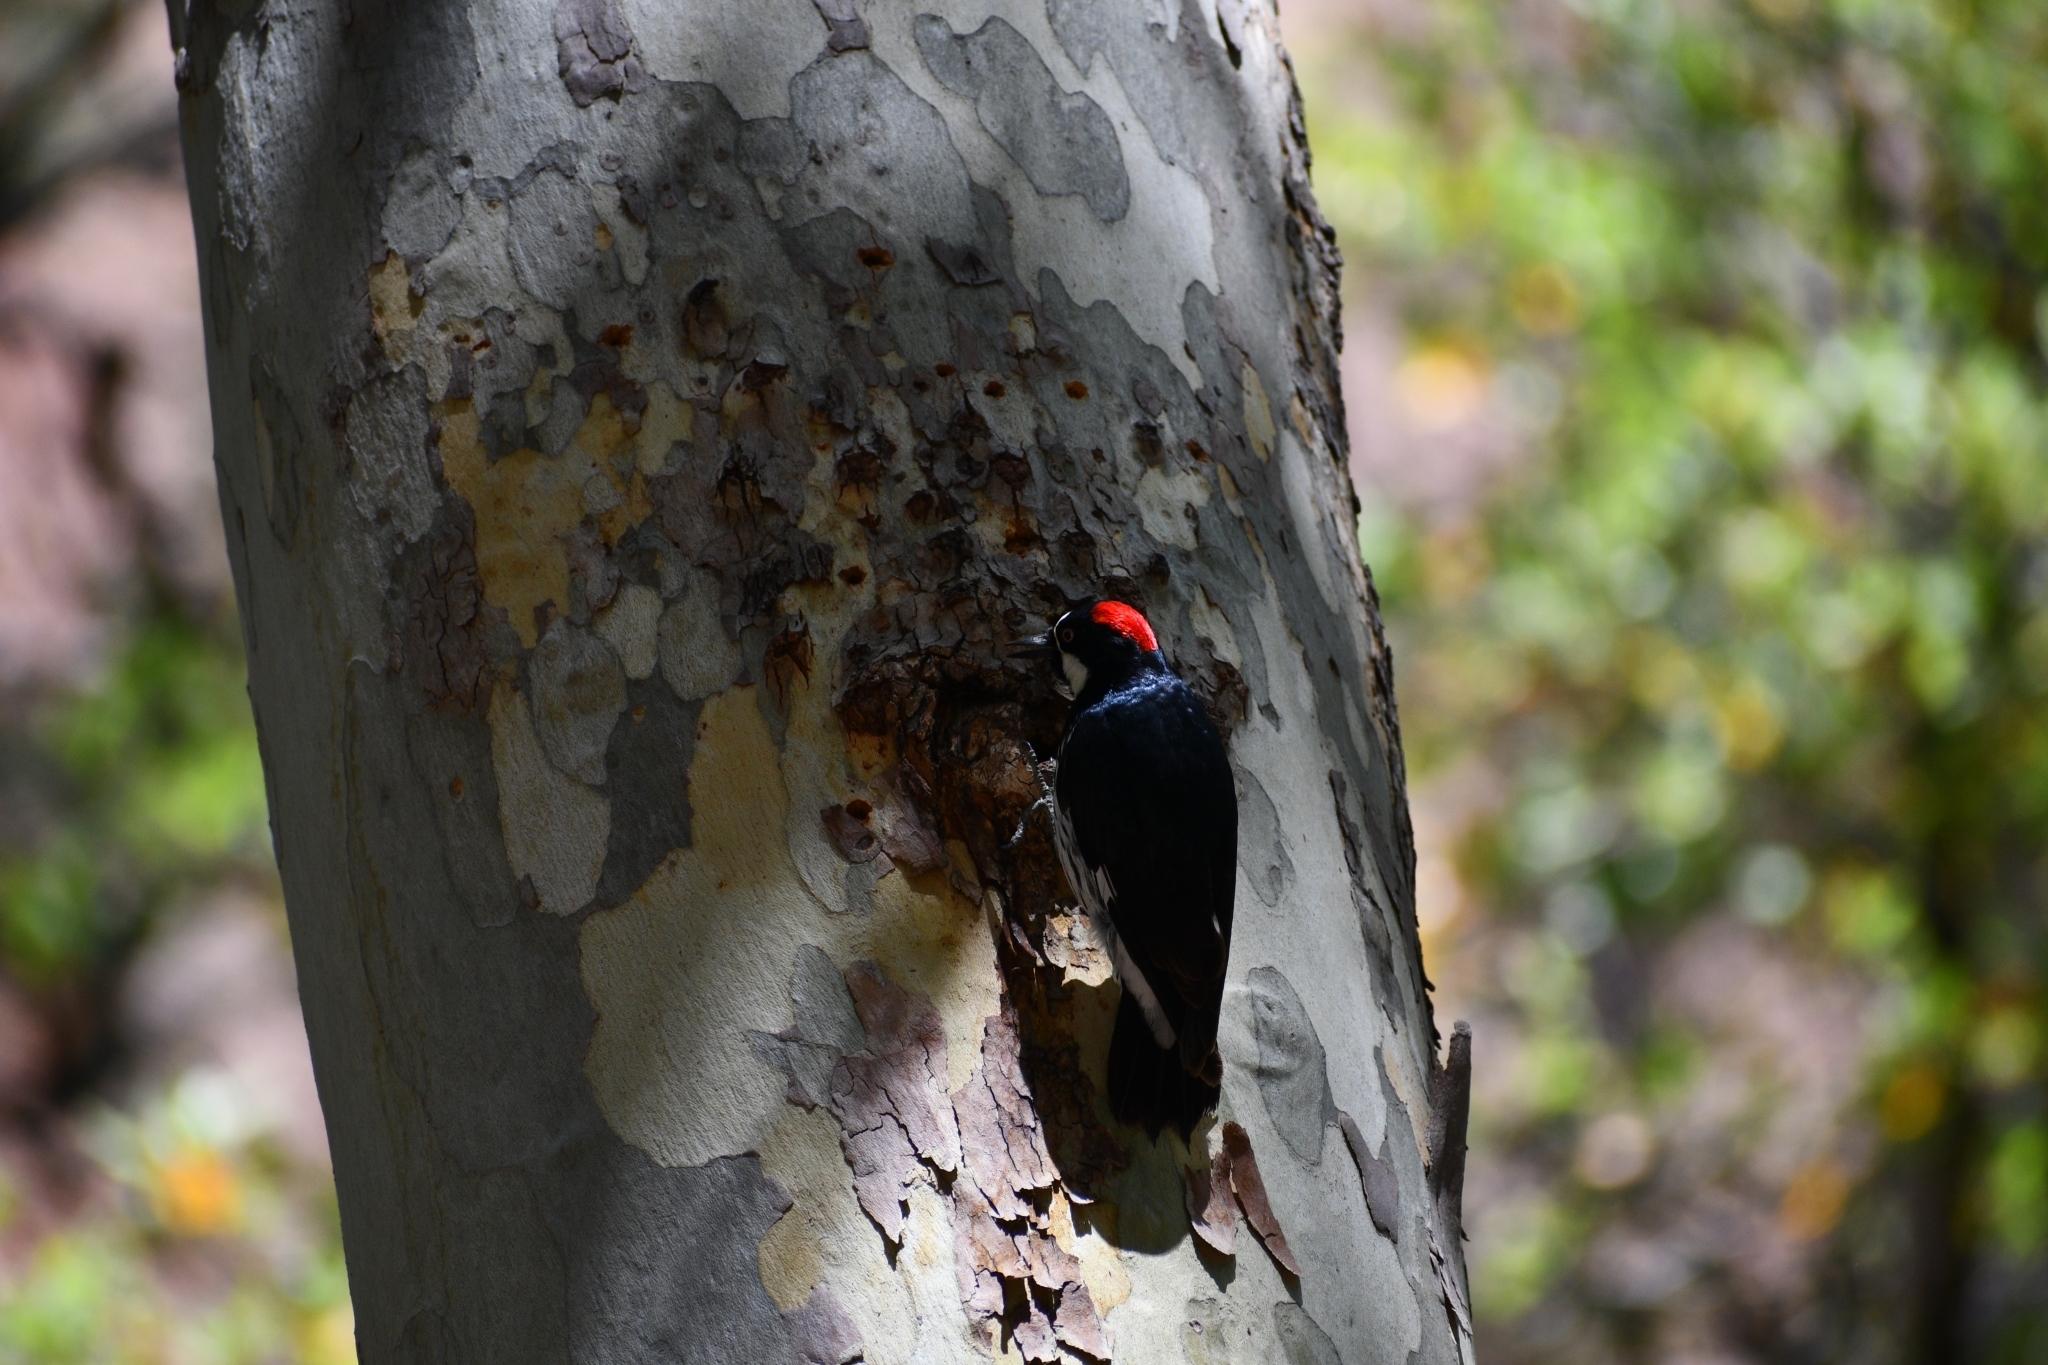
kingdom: Animalia
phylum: Chordata
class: Aves
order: Piciformes
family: Picidae
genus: Melanerpes
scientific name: Melanerpes formicivorus
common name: Acorn woodpecker
